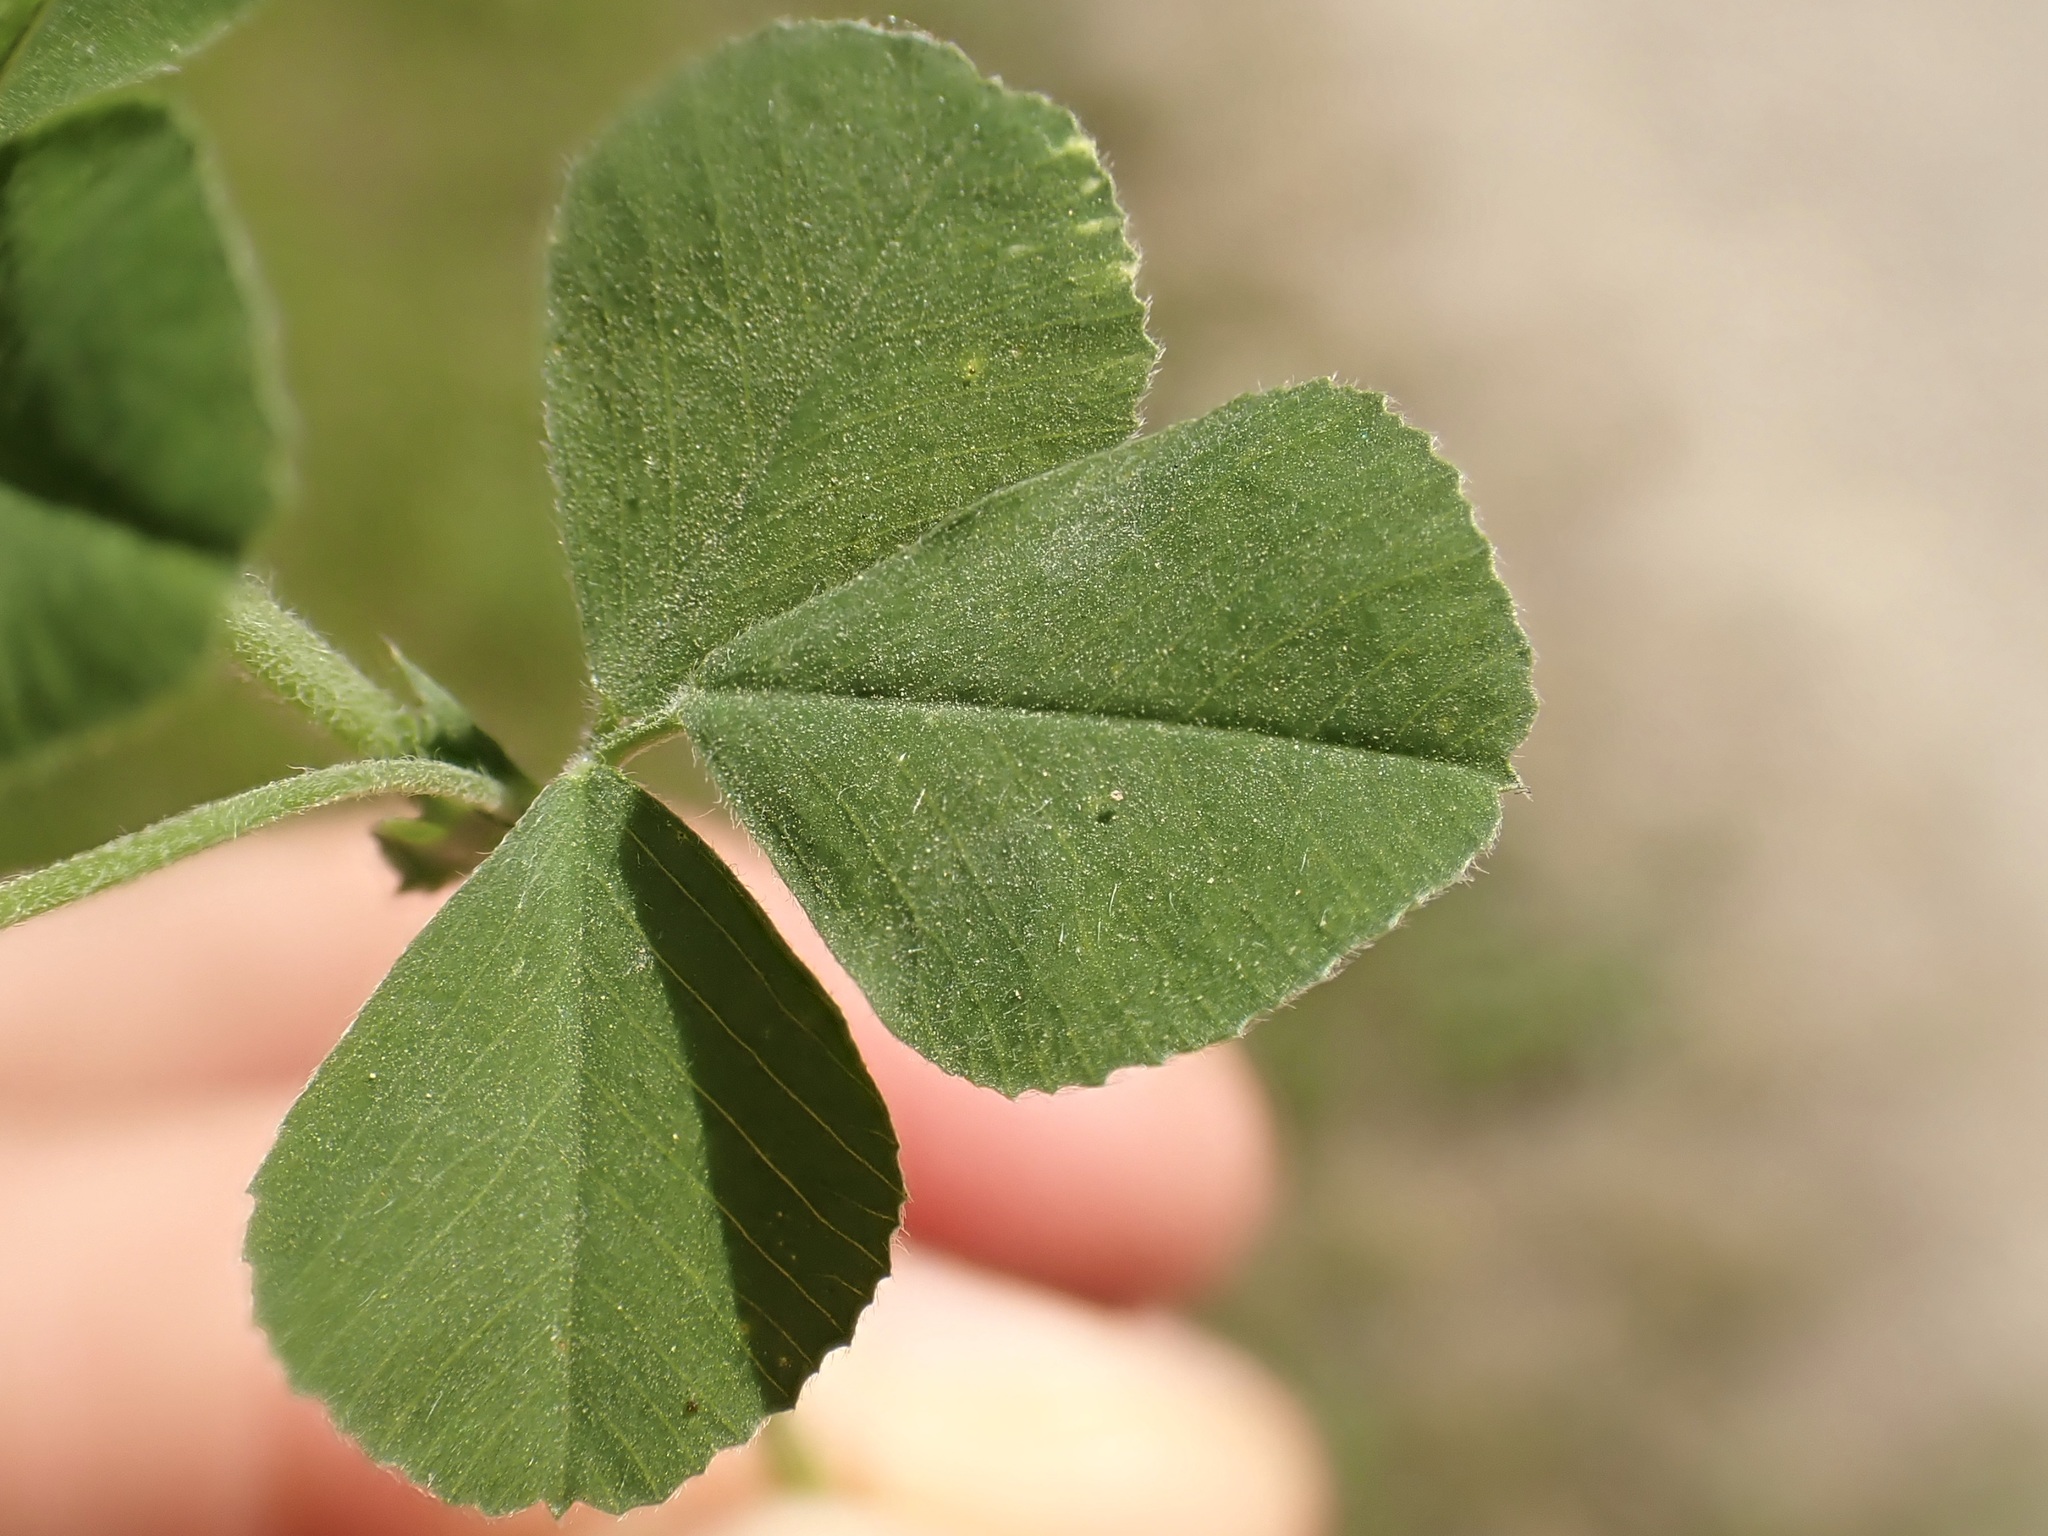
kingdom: Plantae
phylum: Tracheophyta
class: Magnoliopsida
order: Fabales
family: Fabaceae
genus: Medicago
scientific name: Medicago lupulina
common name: Black medick
